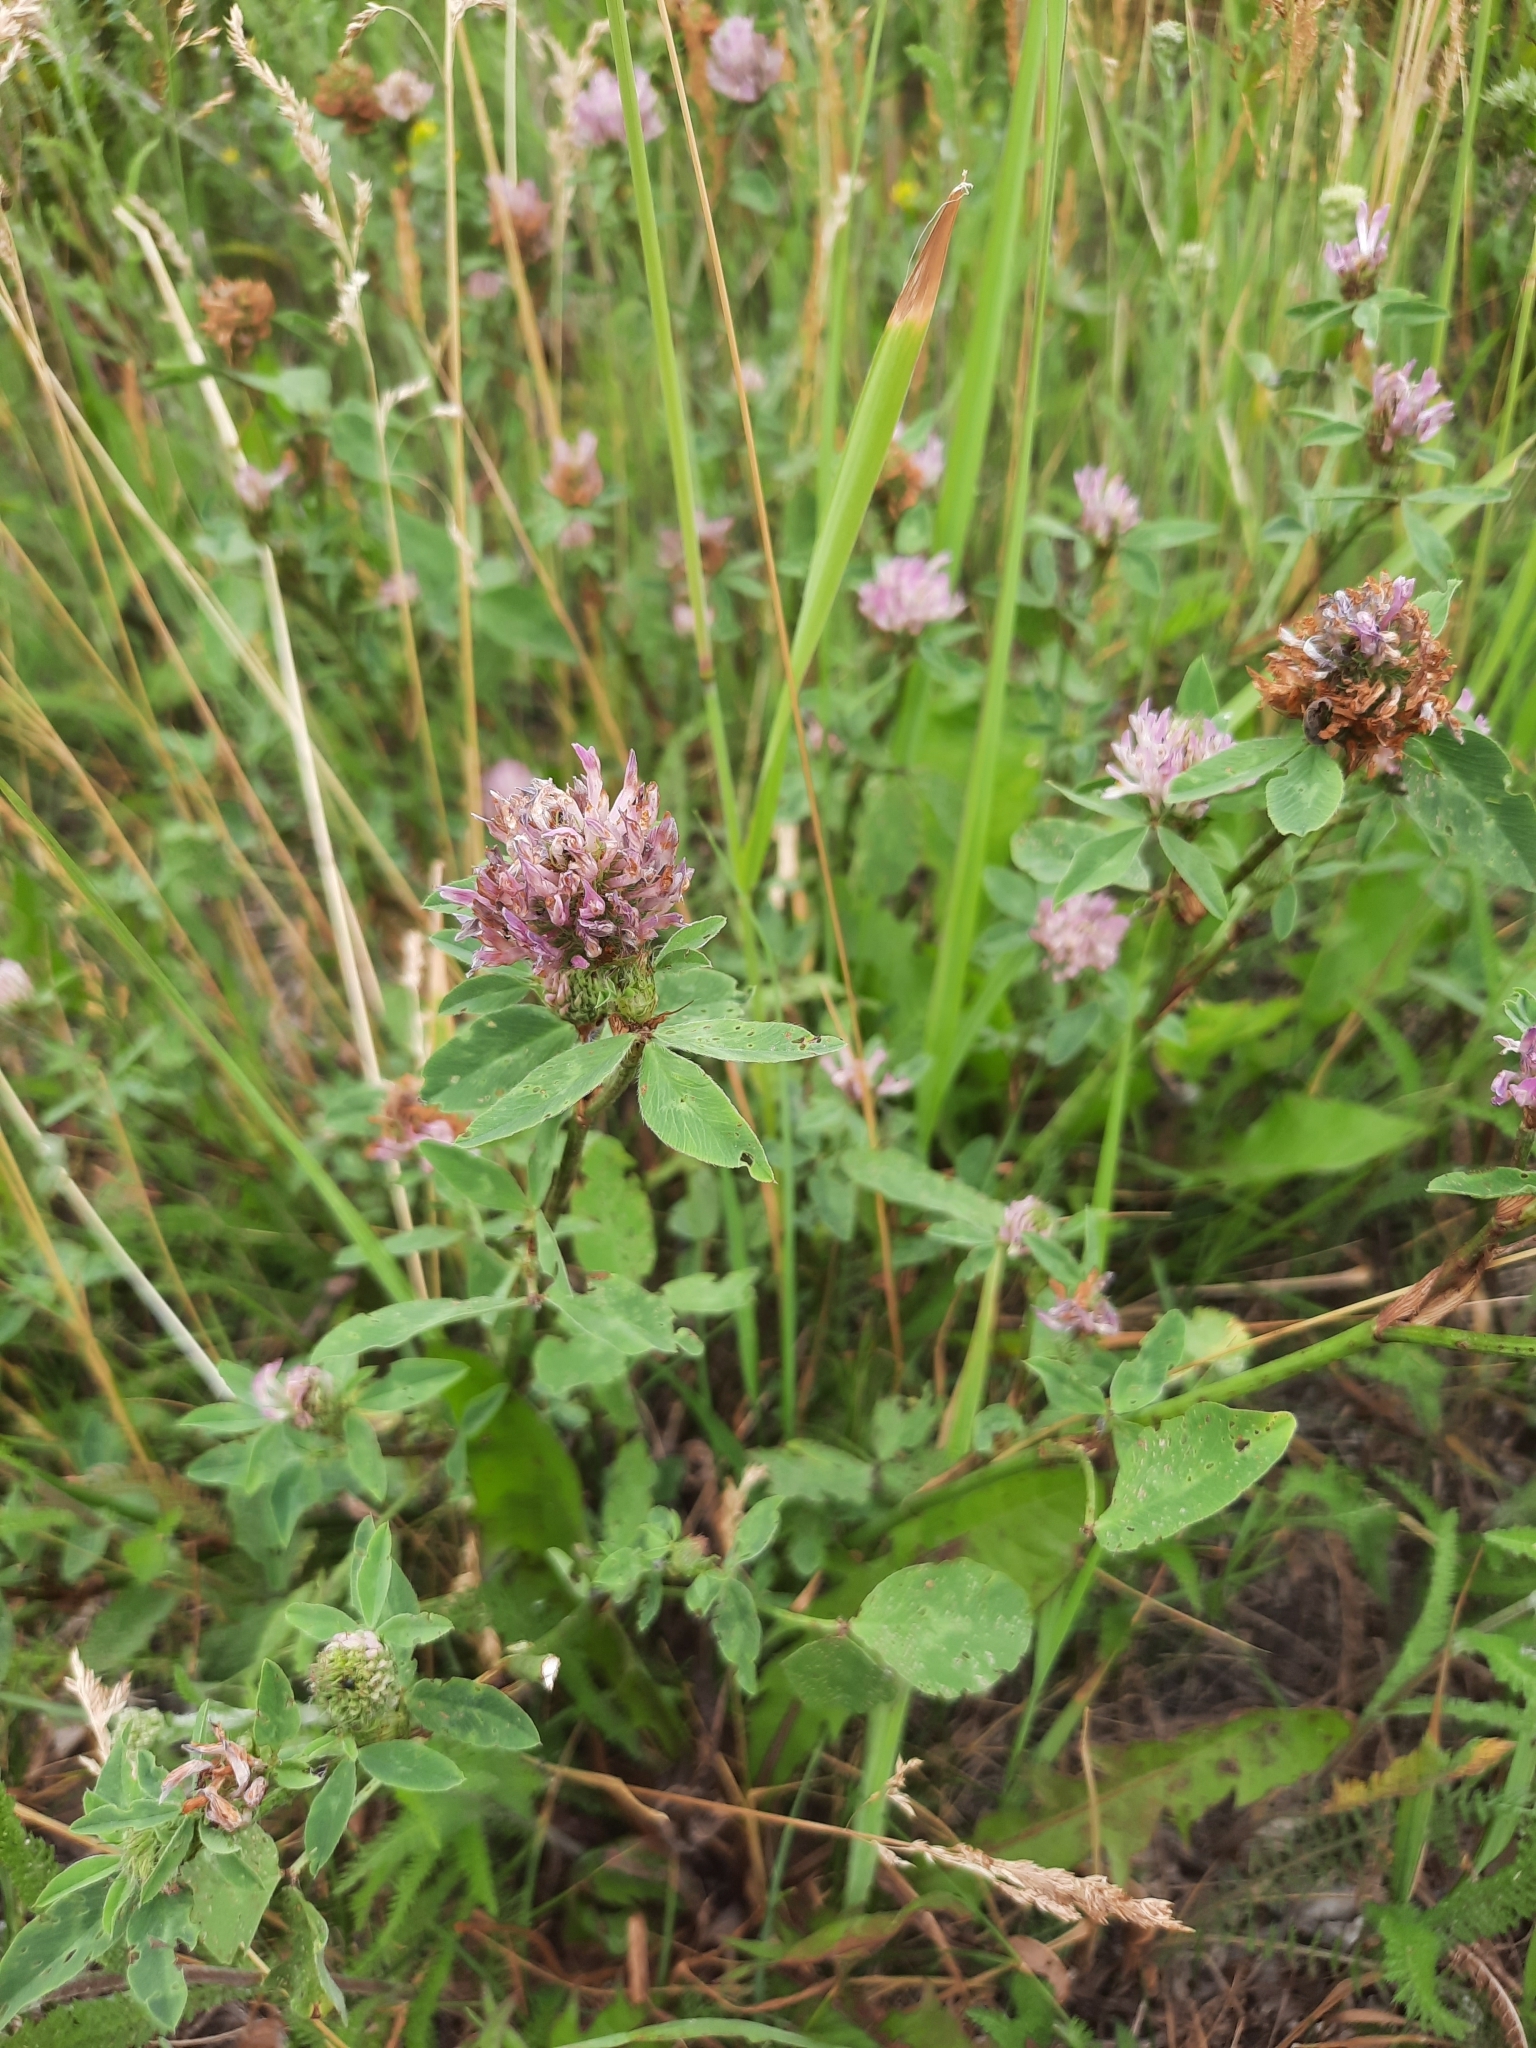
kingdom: Plantae
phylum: Tracheophyta
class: Magnoliopsida
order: Fabales
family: Fabaceae
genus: Trifolium
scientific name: Trifolium pratense
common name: Red clover
